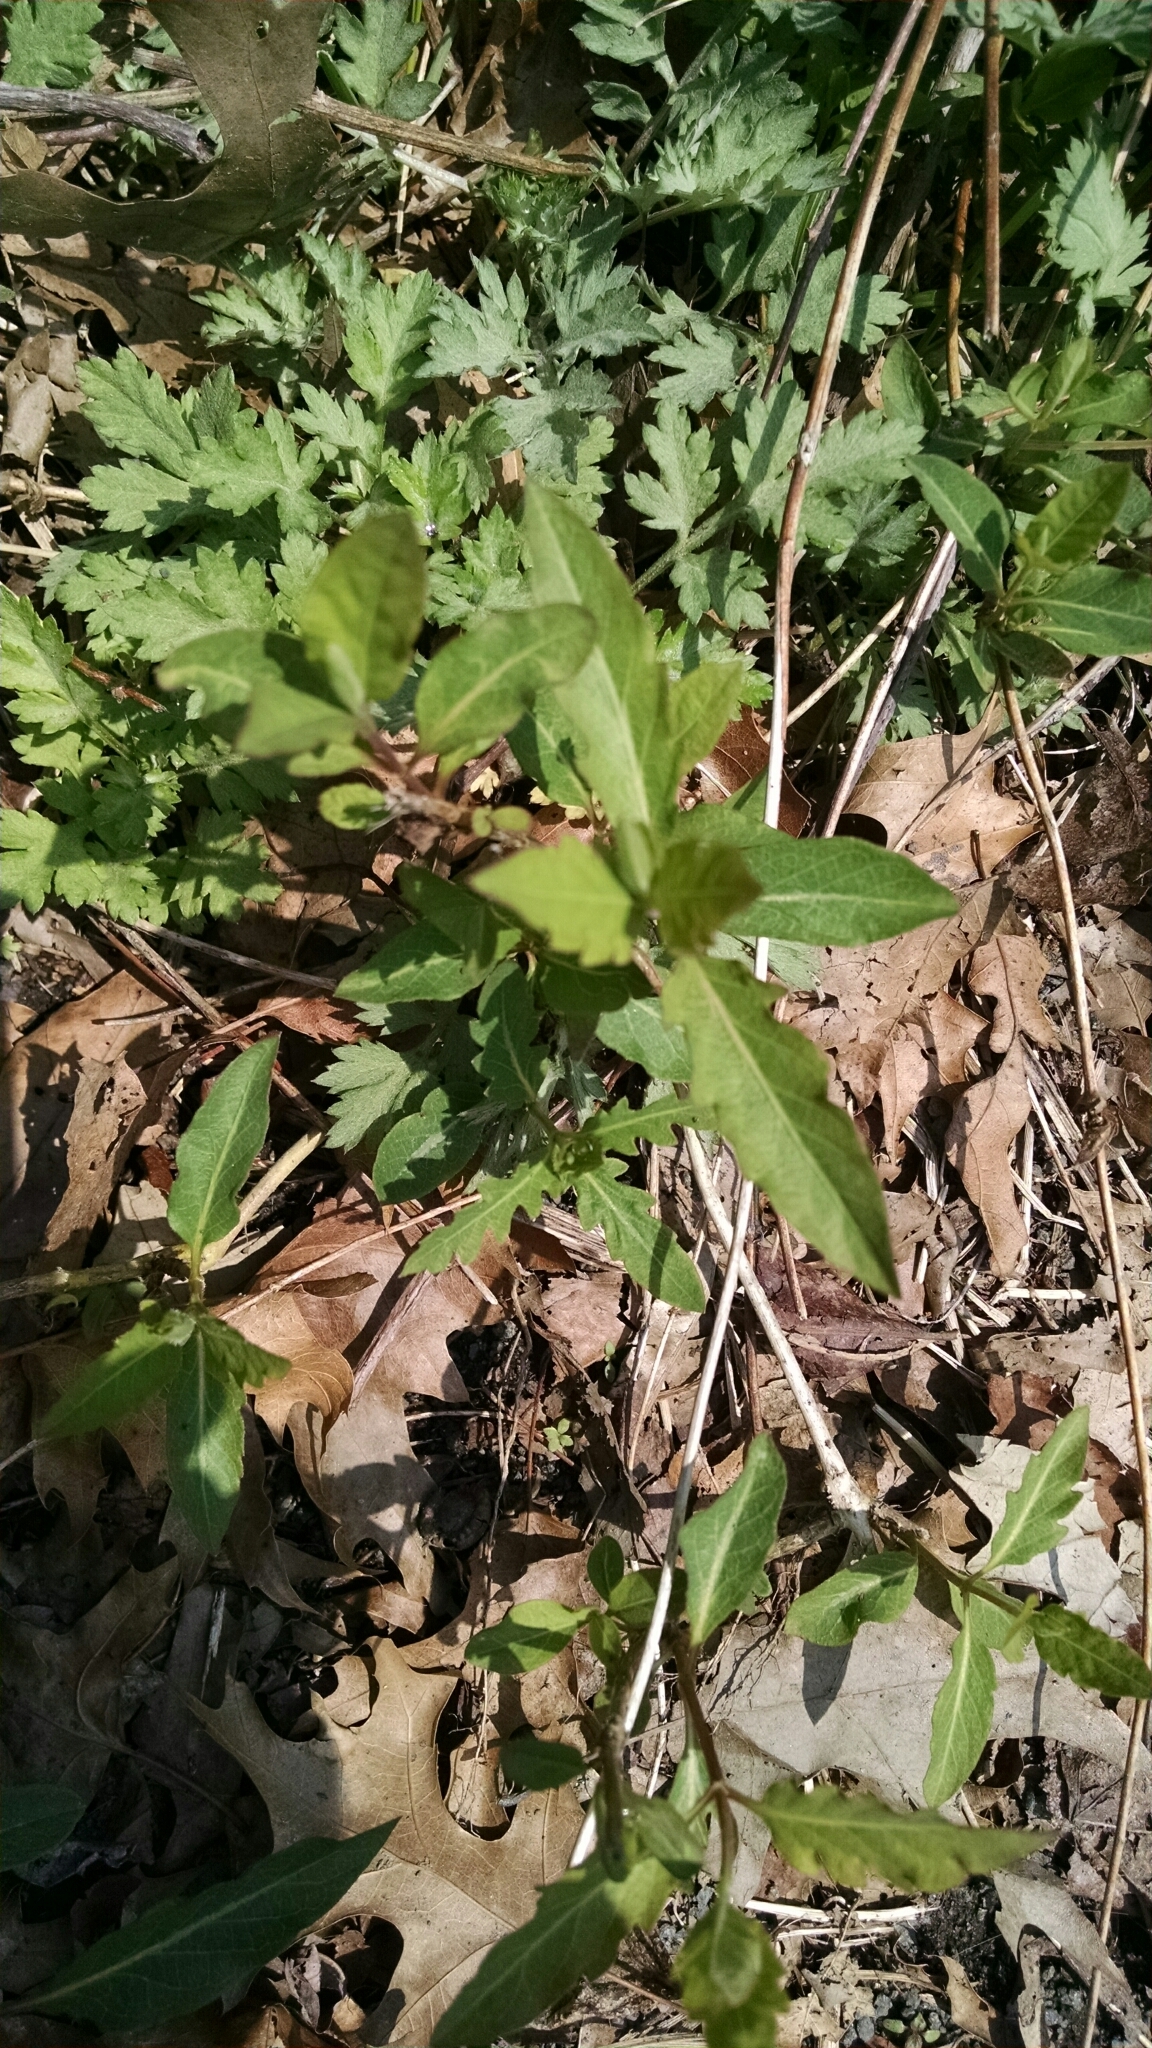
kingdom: Plantae
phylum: Tracheophyta
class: Magnoliopsida
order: Dipsacales
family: Caprifoliaceae
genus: Lonicera
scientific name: Lonicera japonica
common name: Japanese honeysuckle
